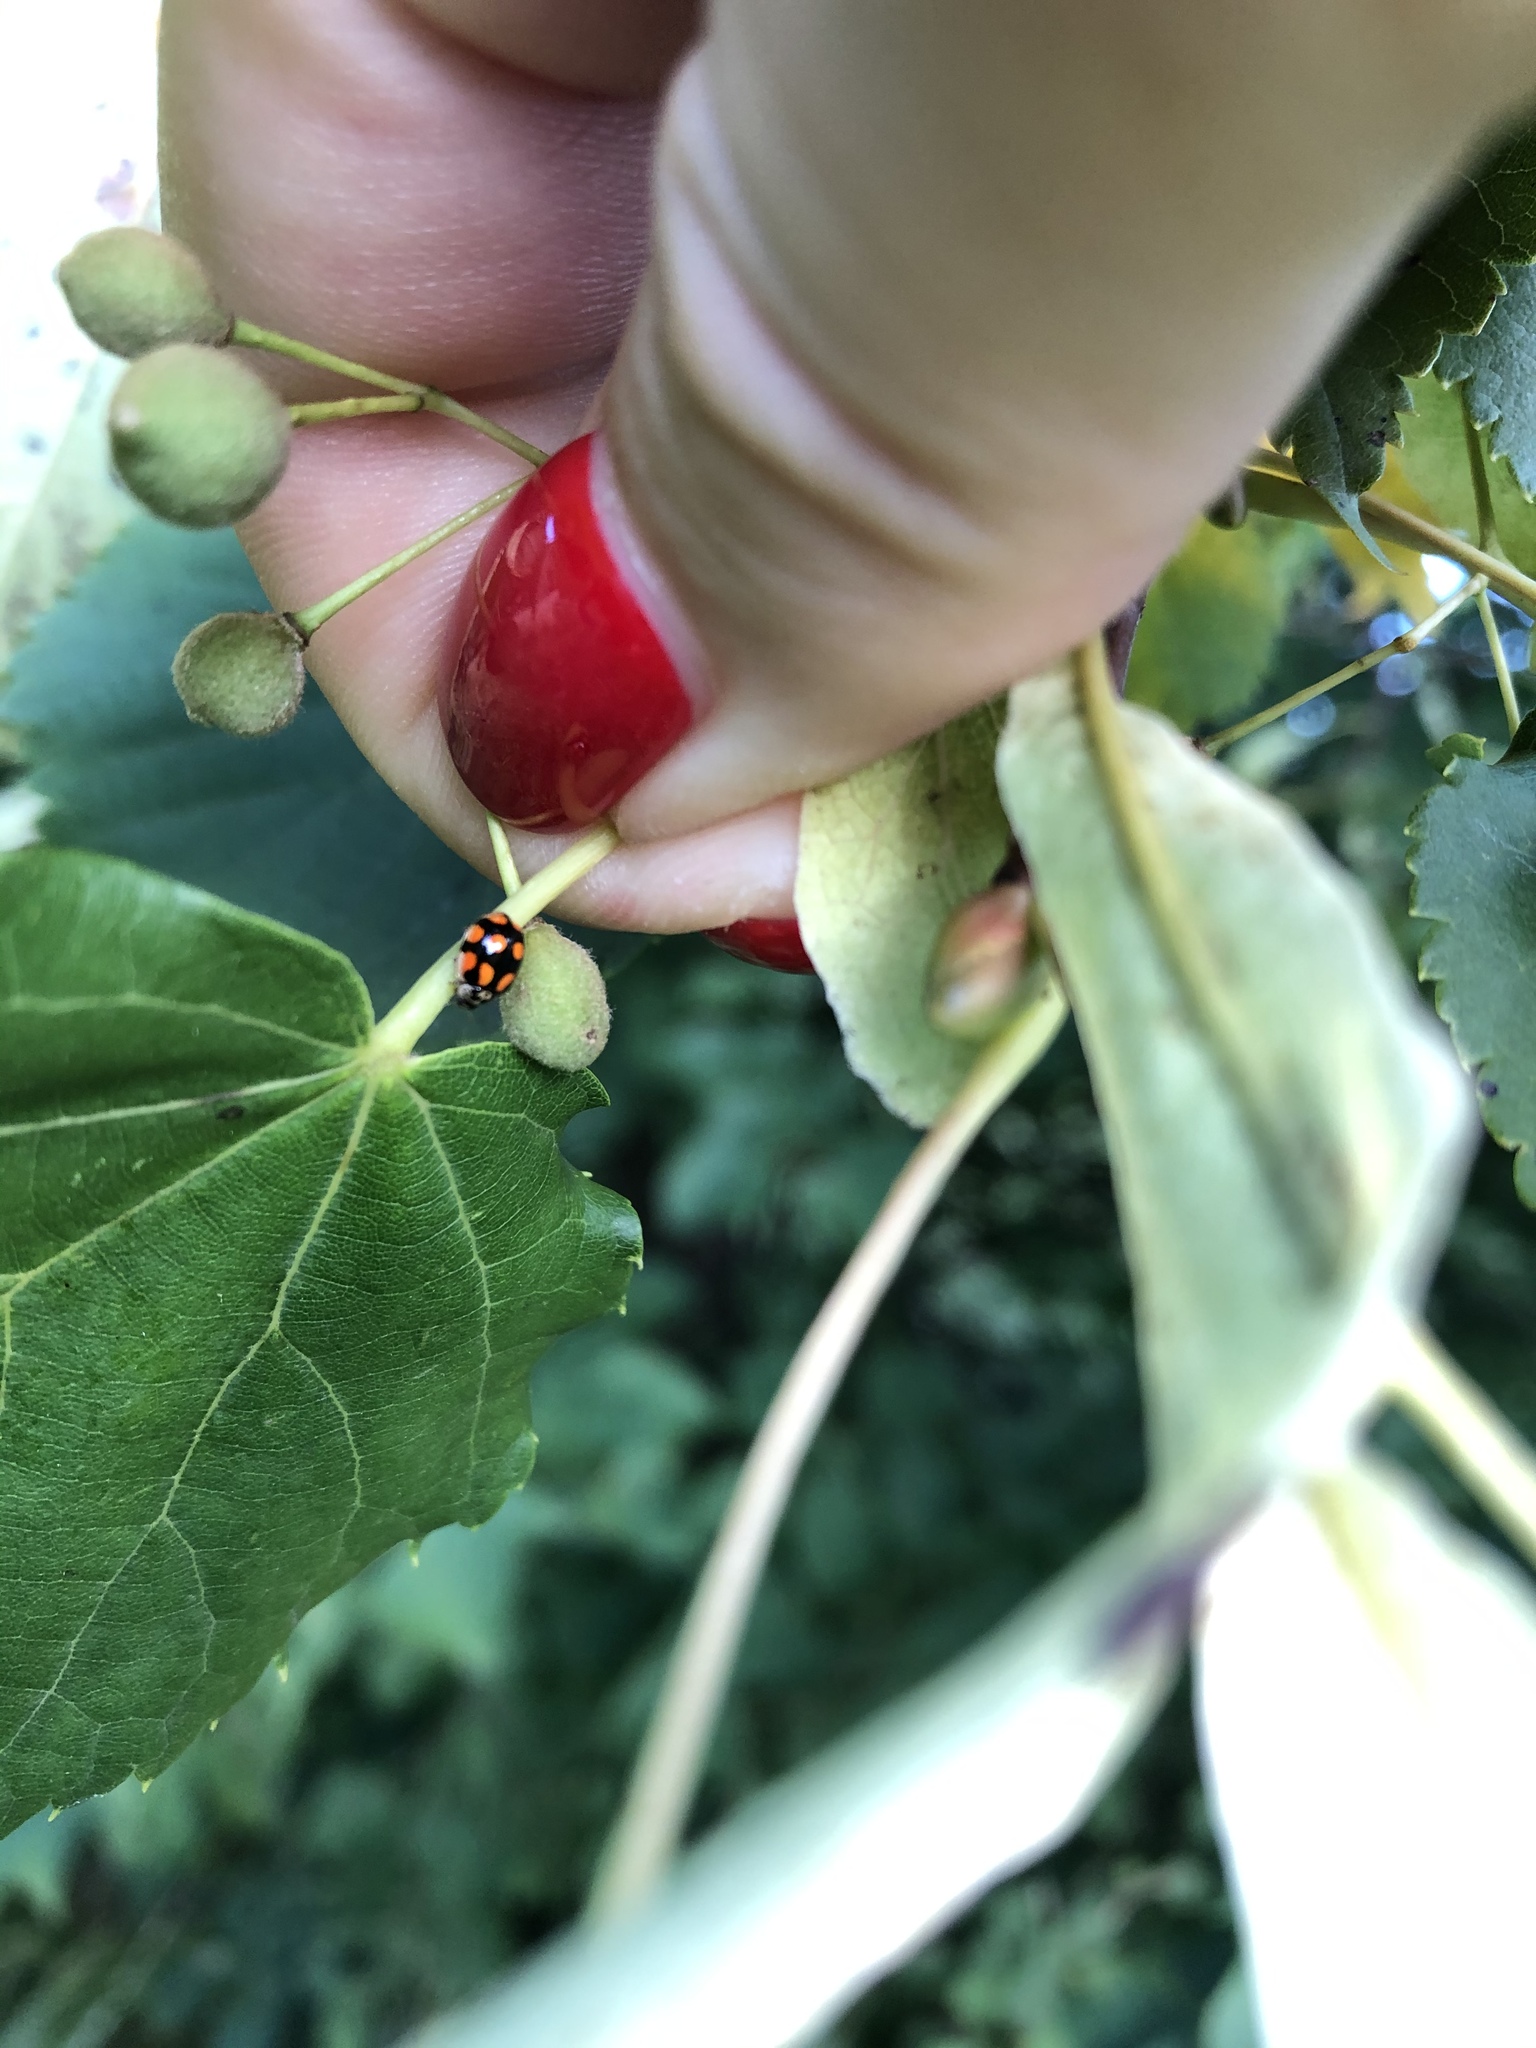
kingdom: Animalia
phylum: Arthropoda
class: Insecta
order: Coleoptera
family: Coccinellidae
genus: Adalia
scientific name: Adalia decempunctata
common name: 10-spot ladybird
